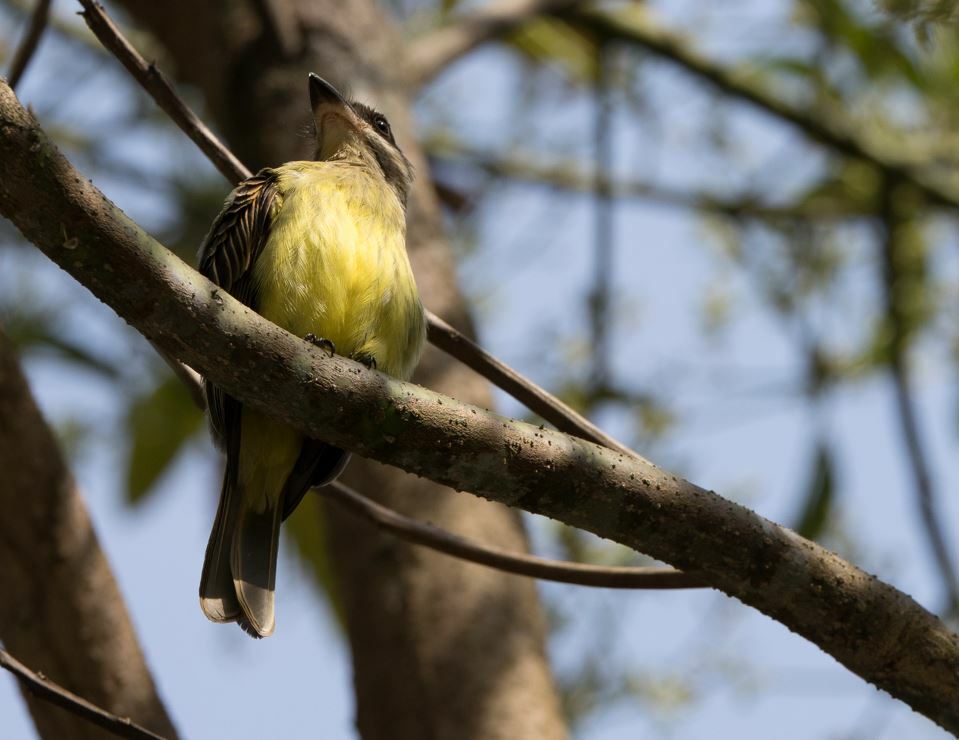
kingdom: Animalia
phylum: Chordata
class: Aves
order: Passeriformes
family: Tyrannidae
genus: Myiodynastes
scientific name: Myiodynastes chrysocephalus
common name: Golden-crowned flycatcher
